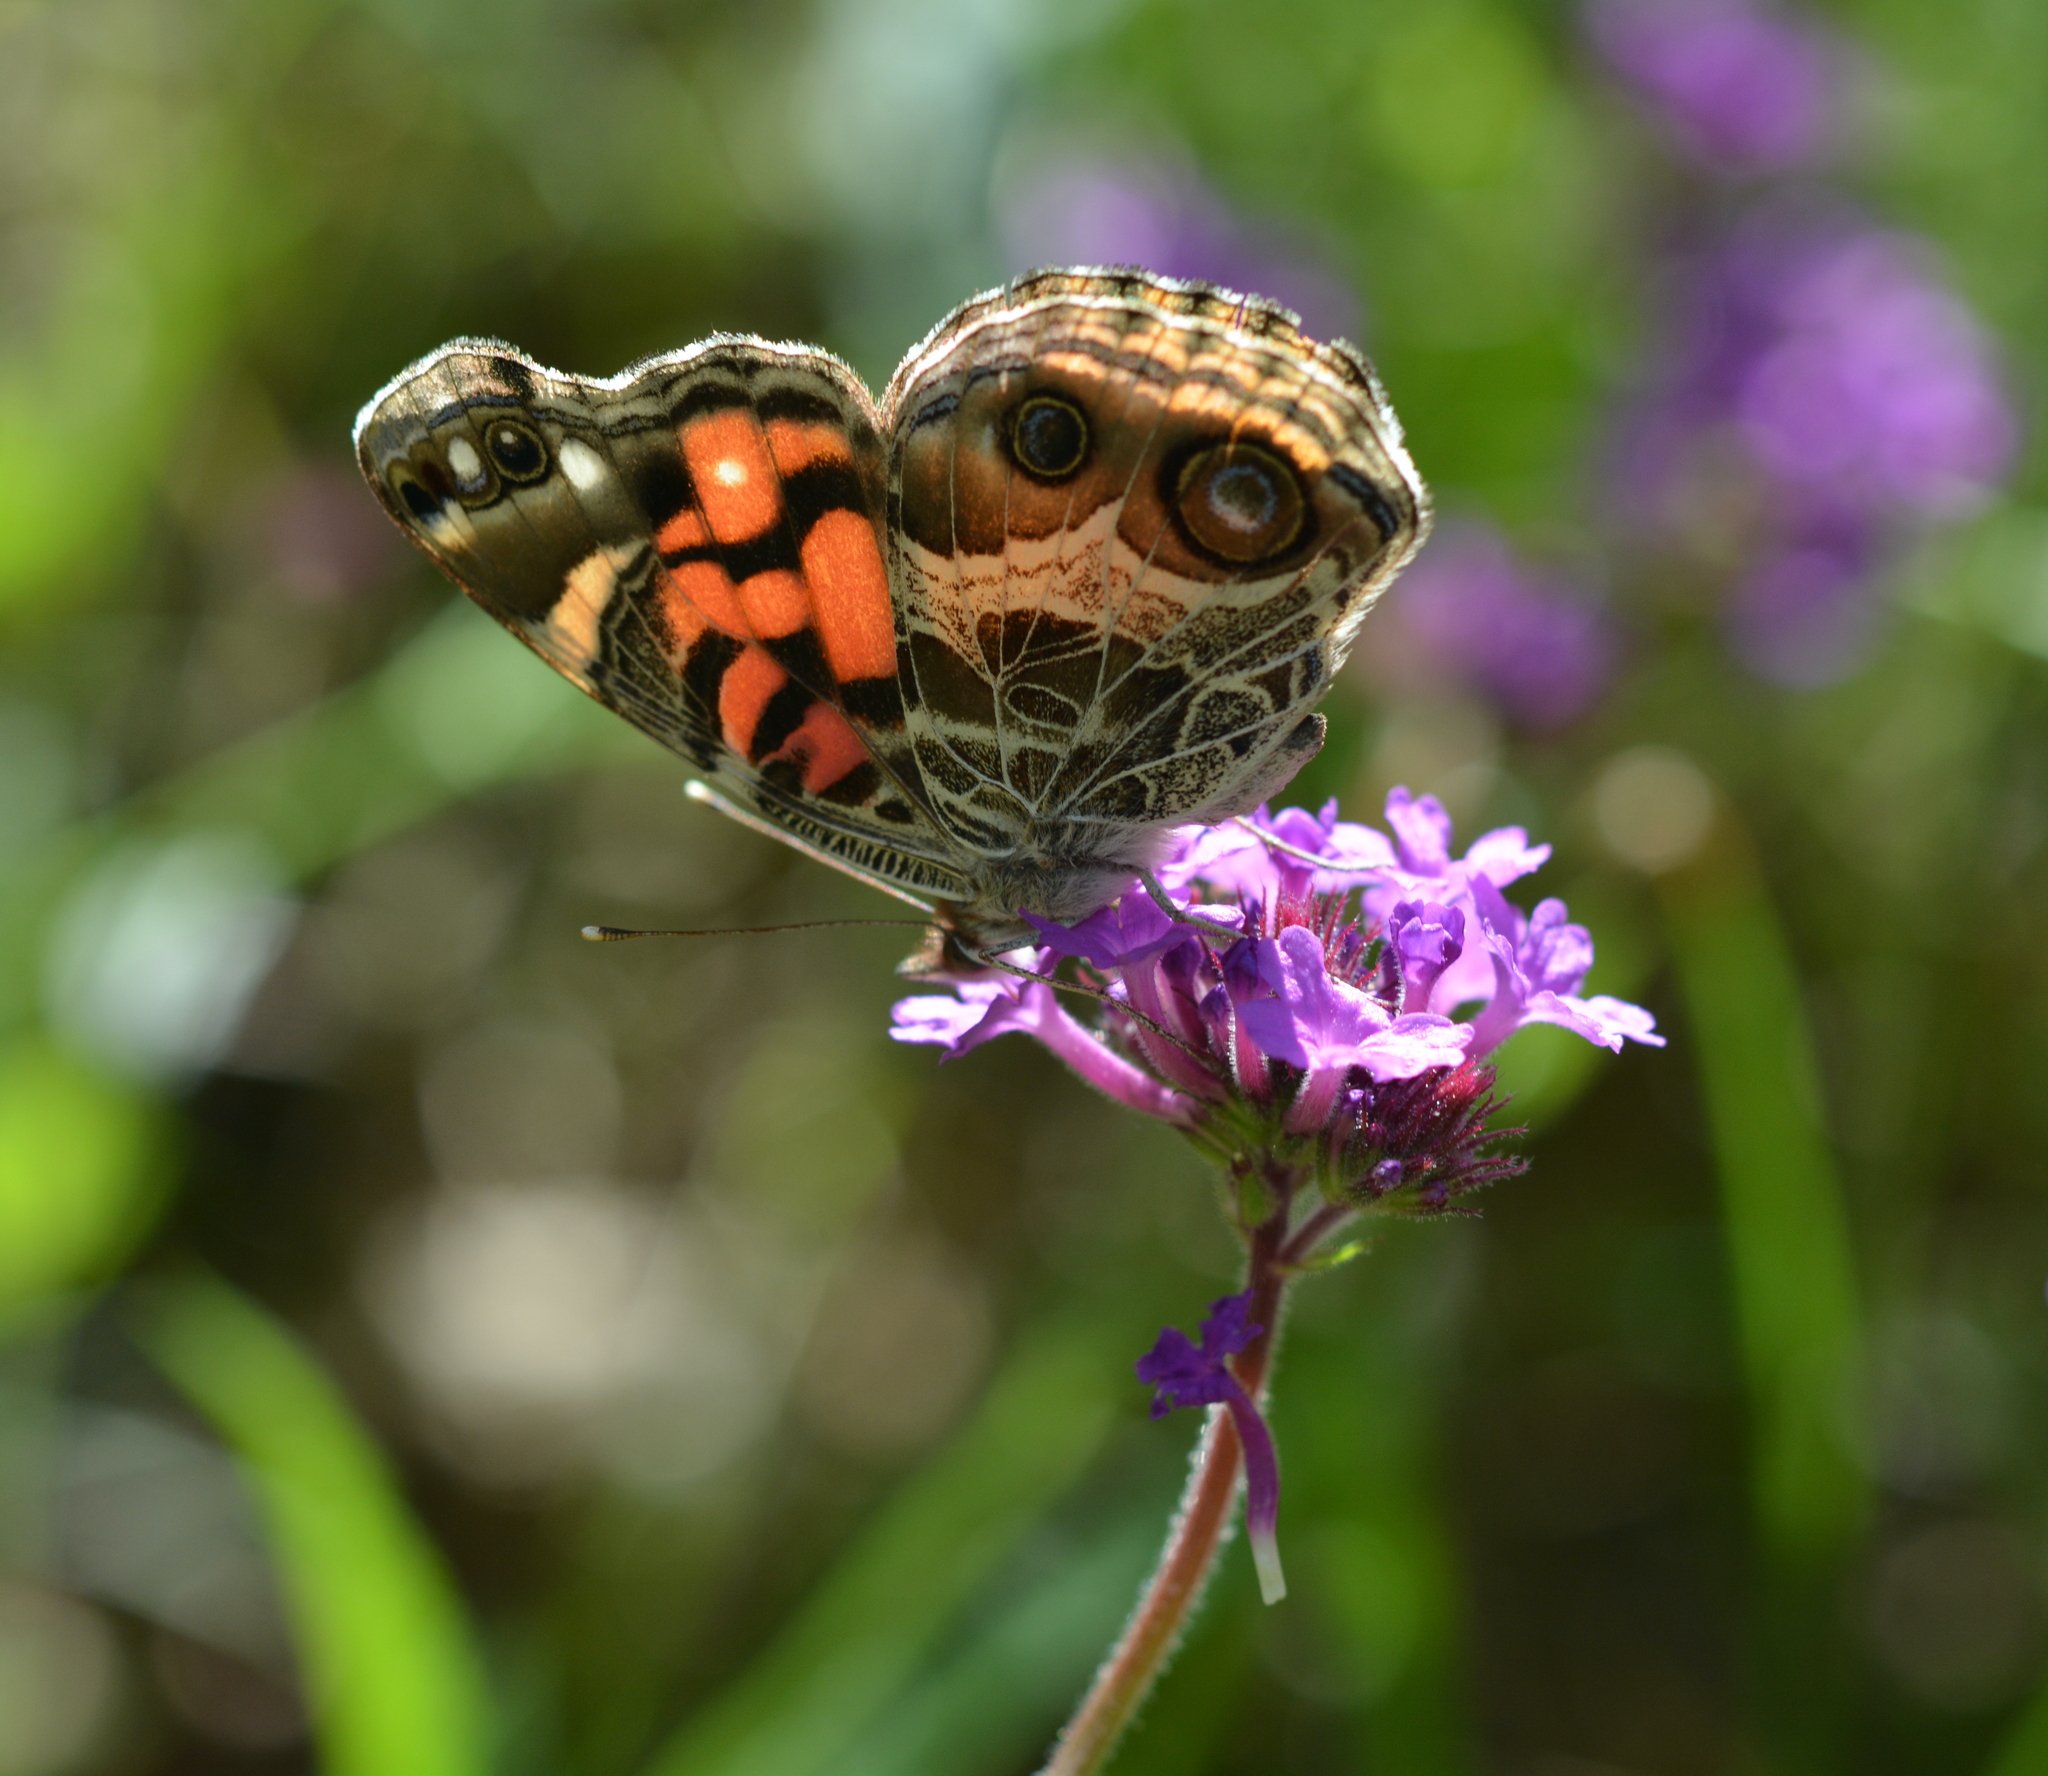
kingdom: Animalia
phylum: Arthropoda
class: Insecta
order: Lepidoptera
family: Nymphalidae
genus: Vanessa
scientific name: Vanessa virginiensis
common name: American lady
